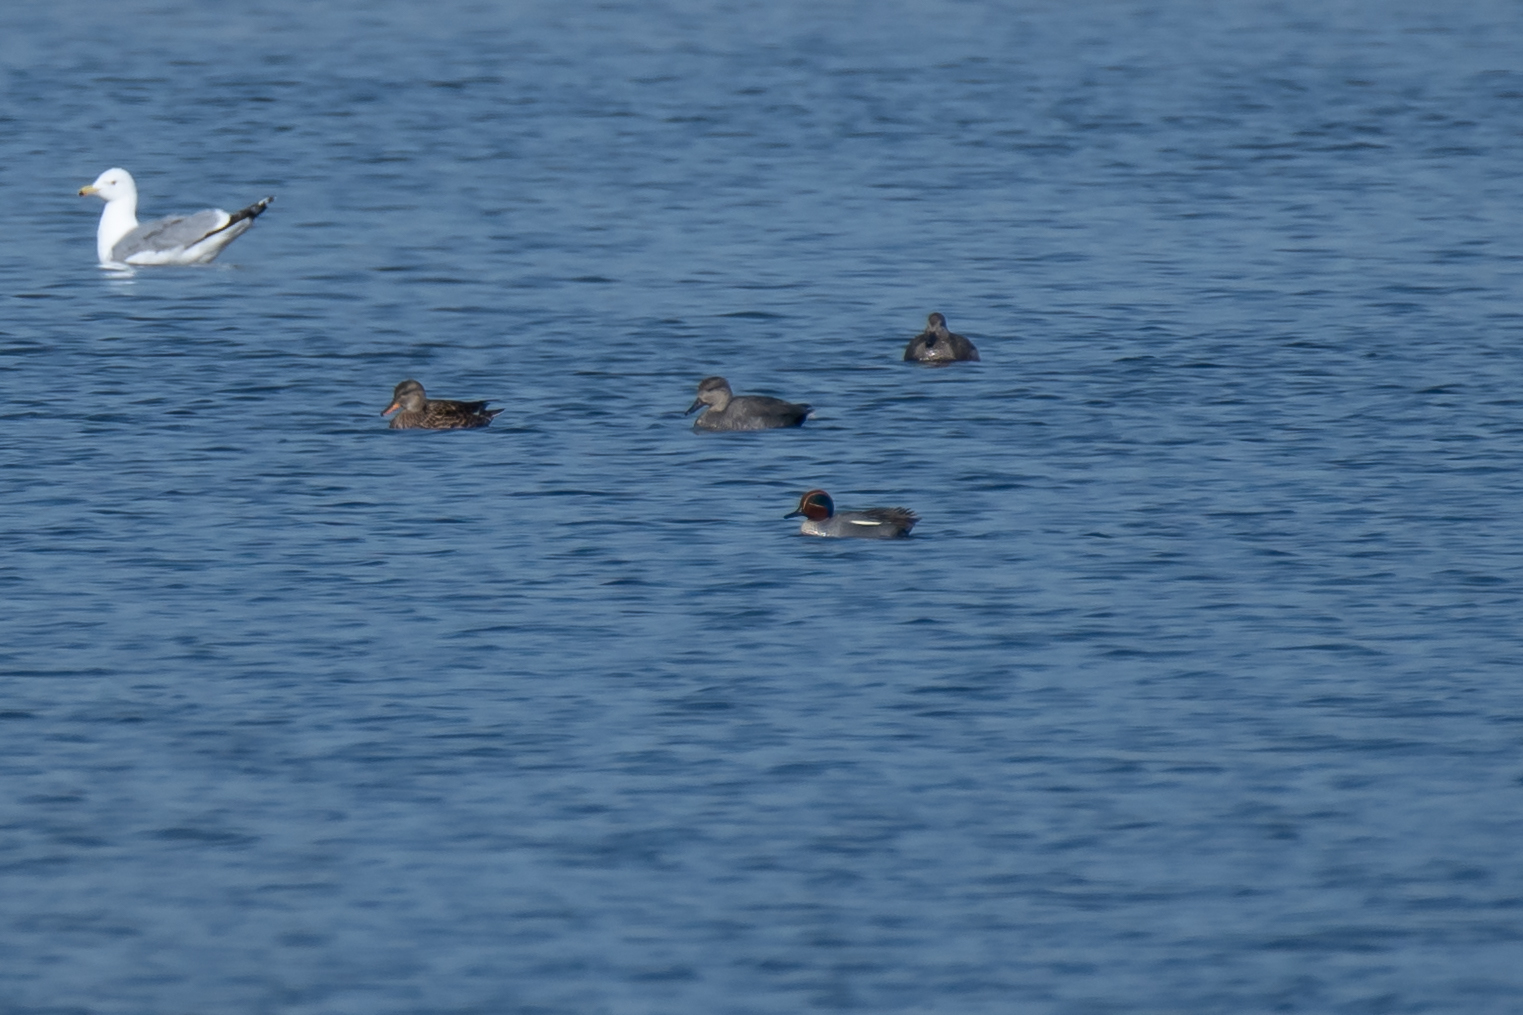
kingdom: Animalia
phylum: Chordata
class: Aves
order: Anseriformes
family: Anatidae
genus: Anas
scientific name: Anas crecca
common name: Eurasian teal
